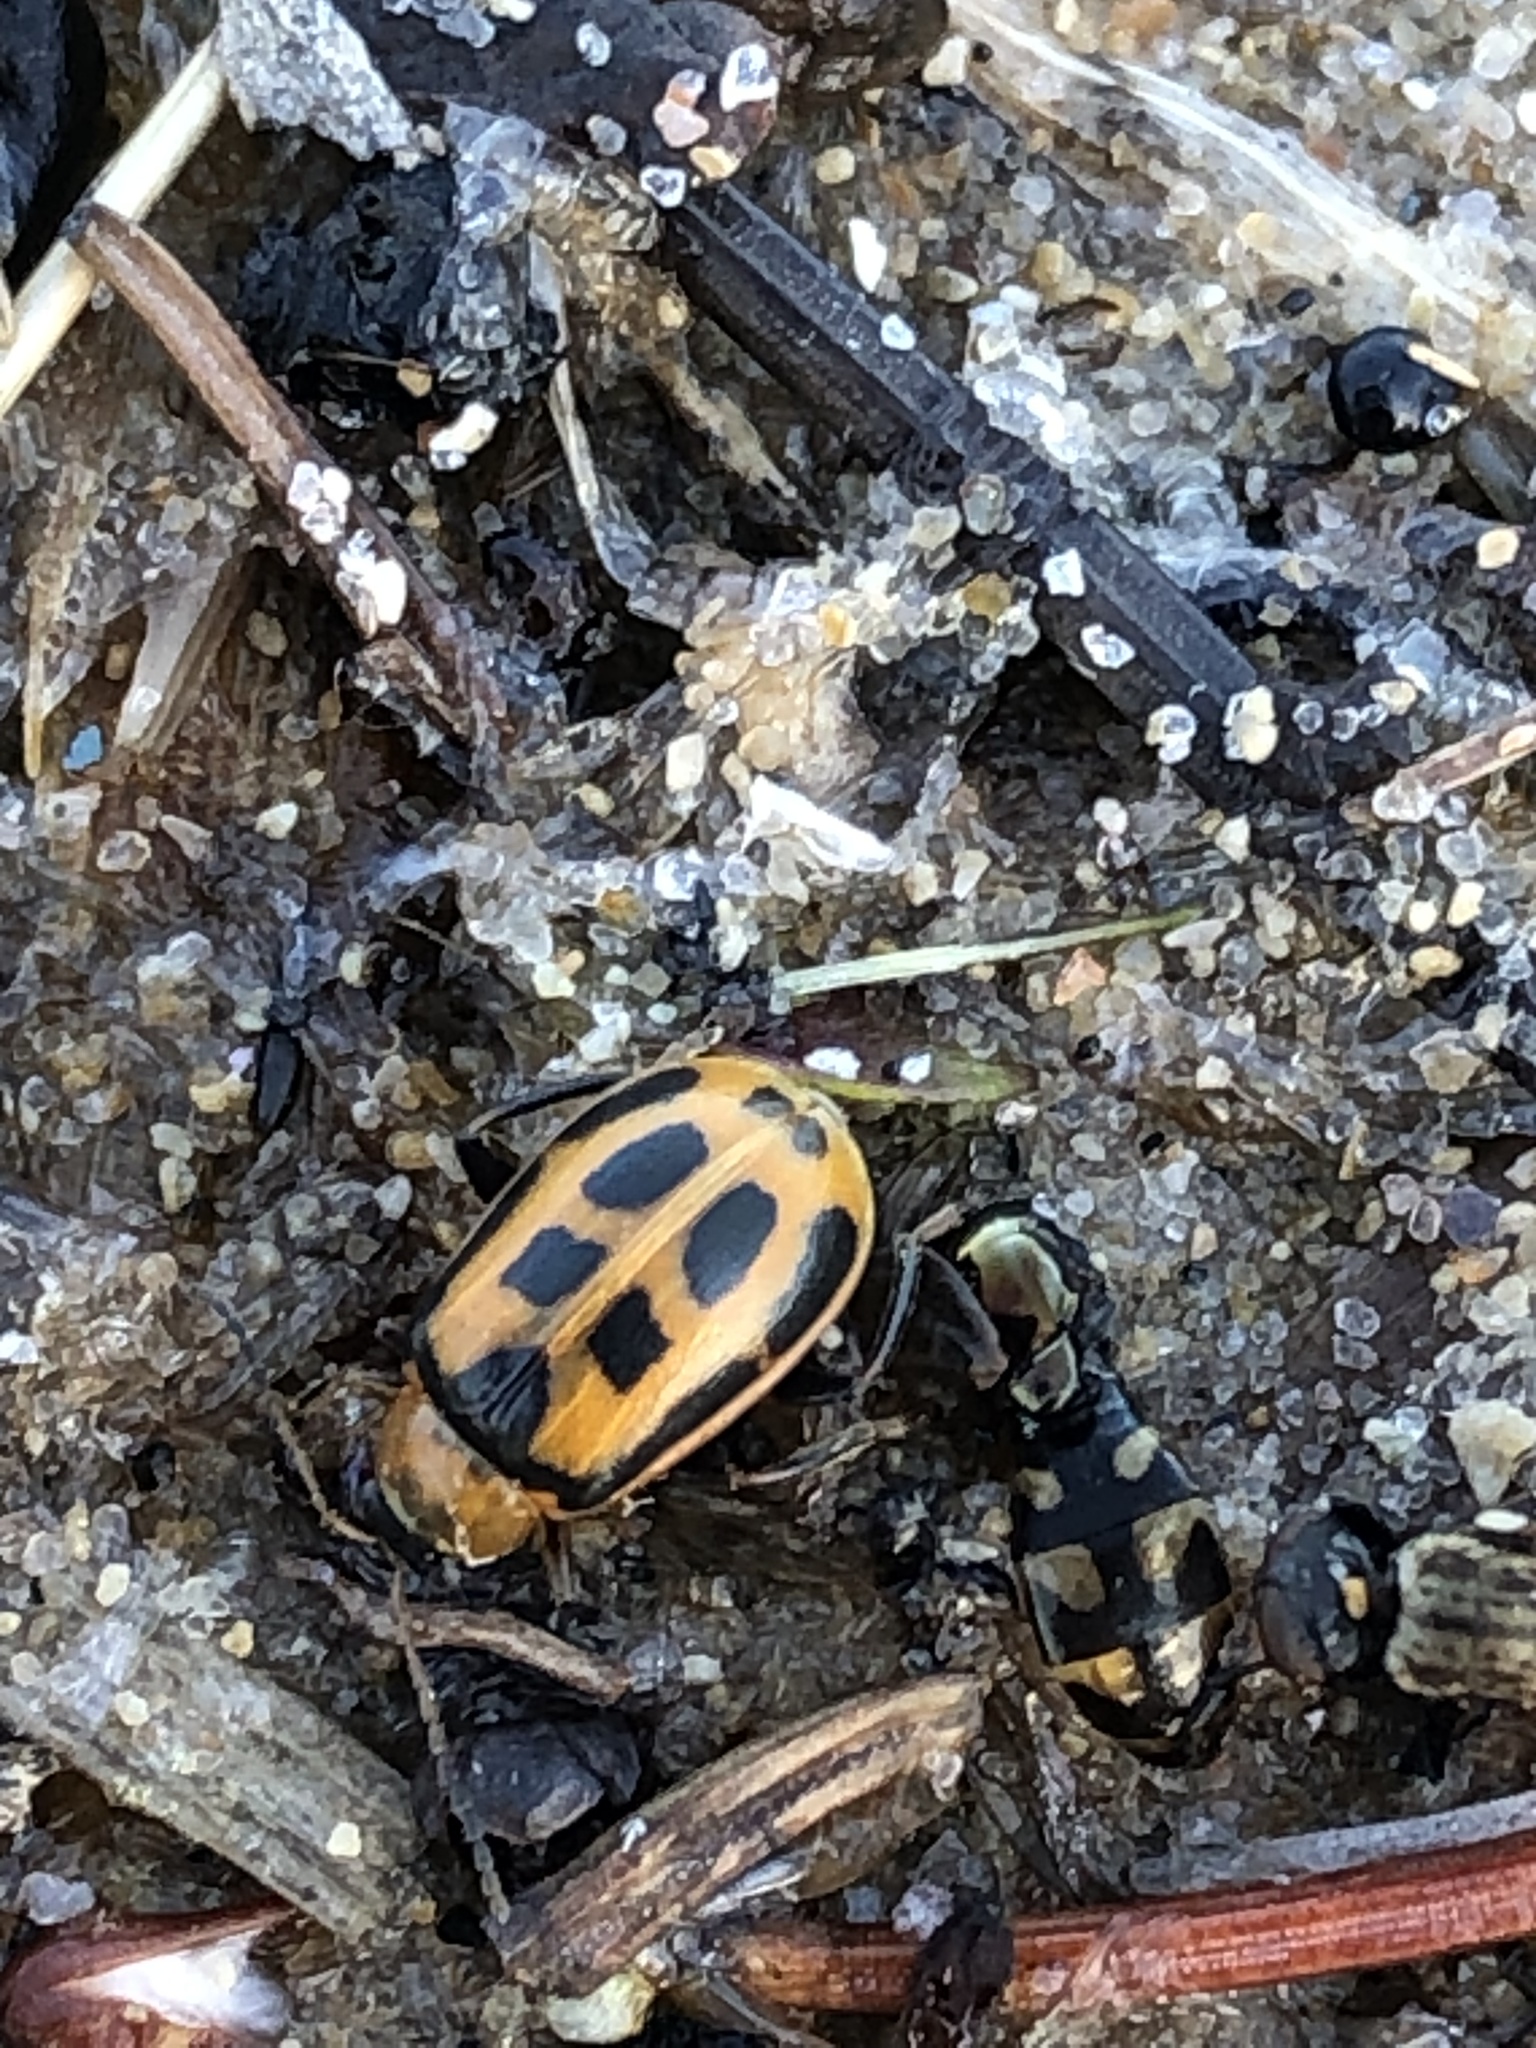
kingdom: Animalia
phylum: Arthropoda
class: Insecta
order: Coleoptera
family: Chrysomelidae
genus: Cerotoma
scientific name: Cerotoma trifurcata
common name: Bean leaf beetle
